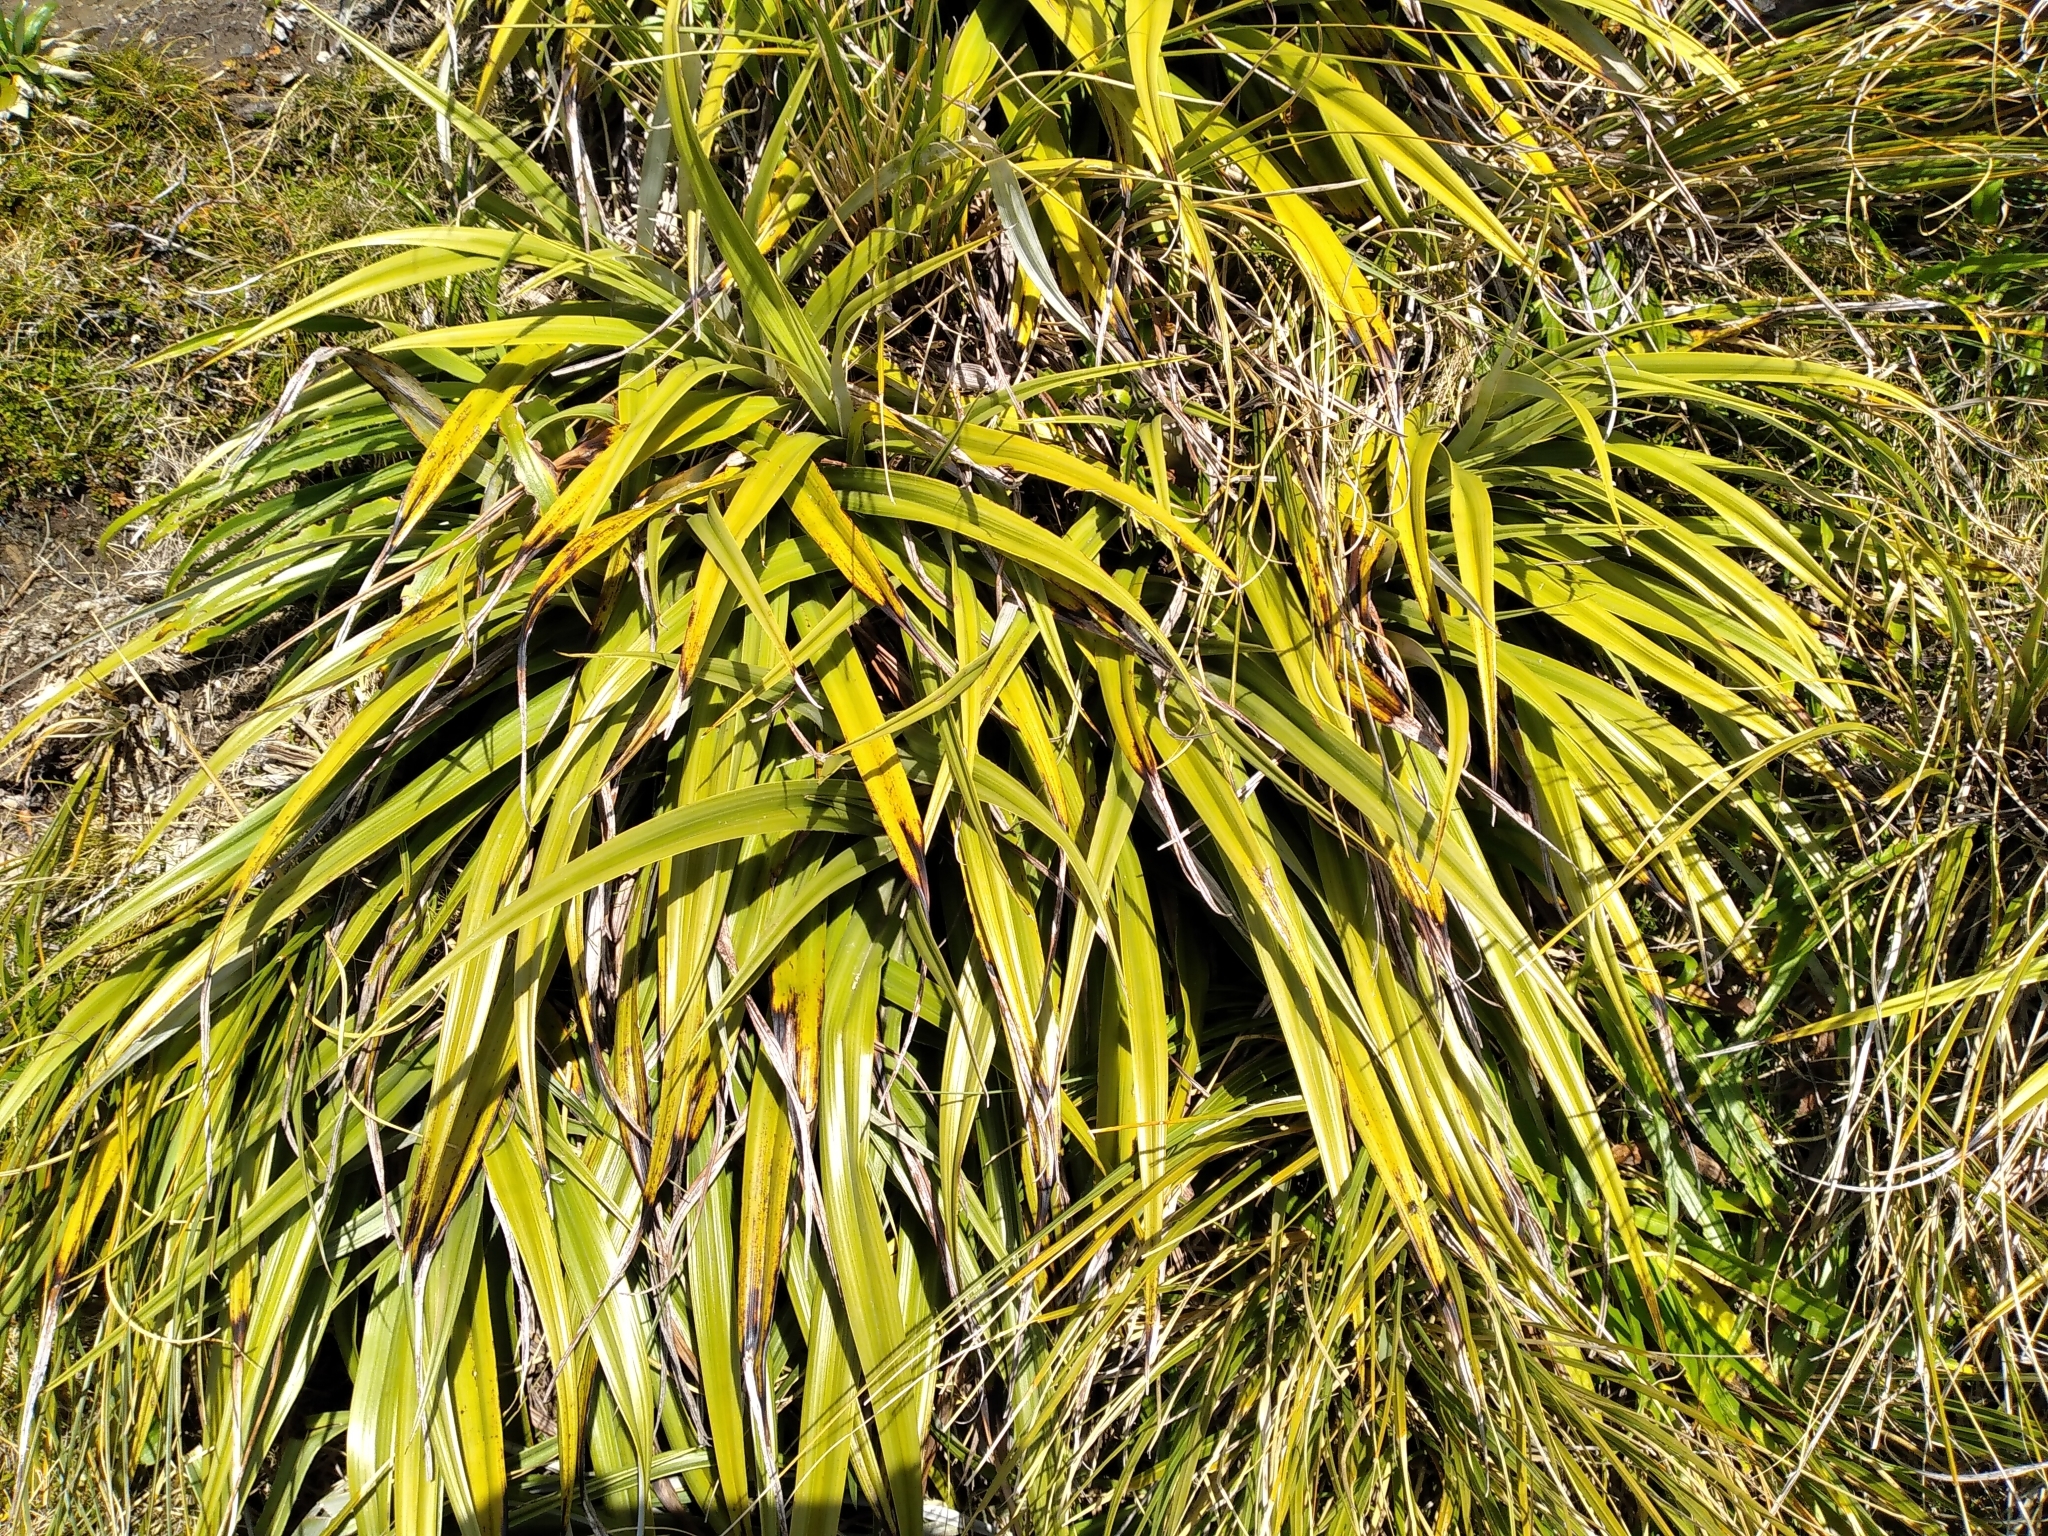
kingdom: Plantae
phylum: Tracheophyta
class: Liliopsida
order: Asparagales
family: Asteliaceae
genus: Astelia
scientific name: Astelia petriei
